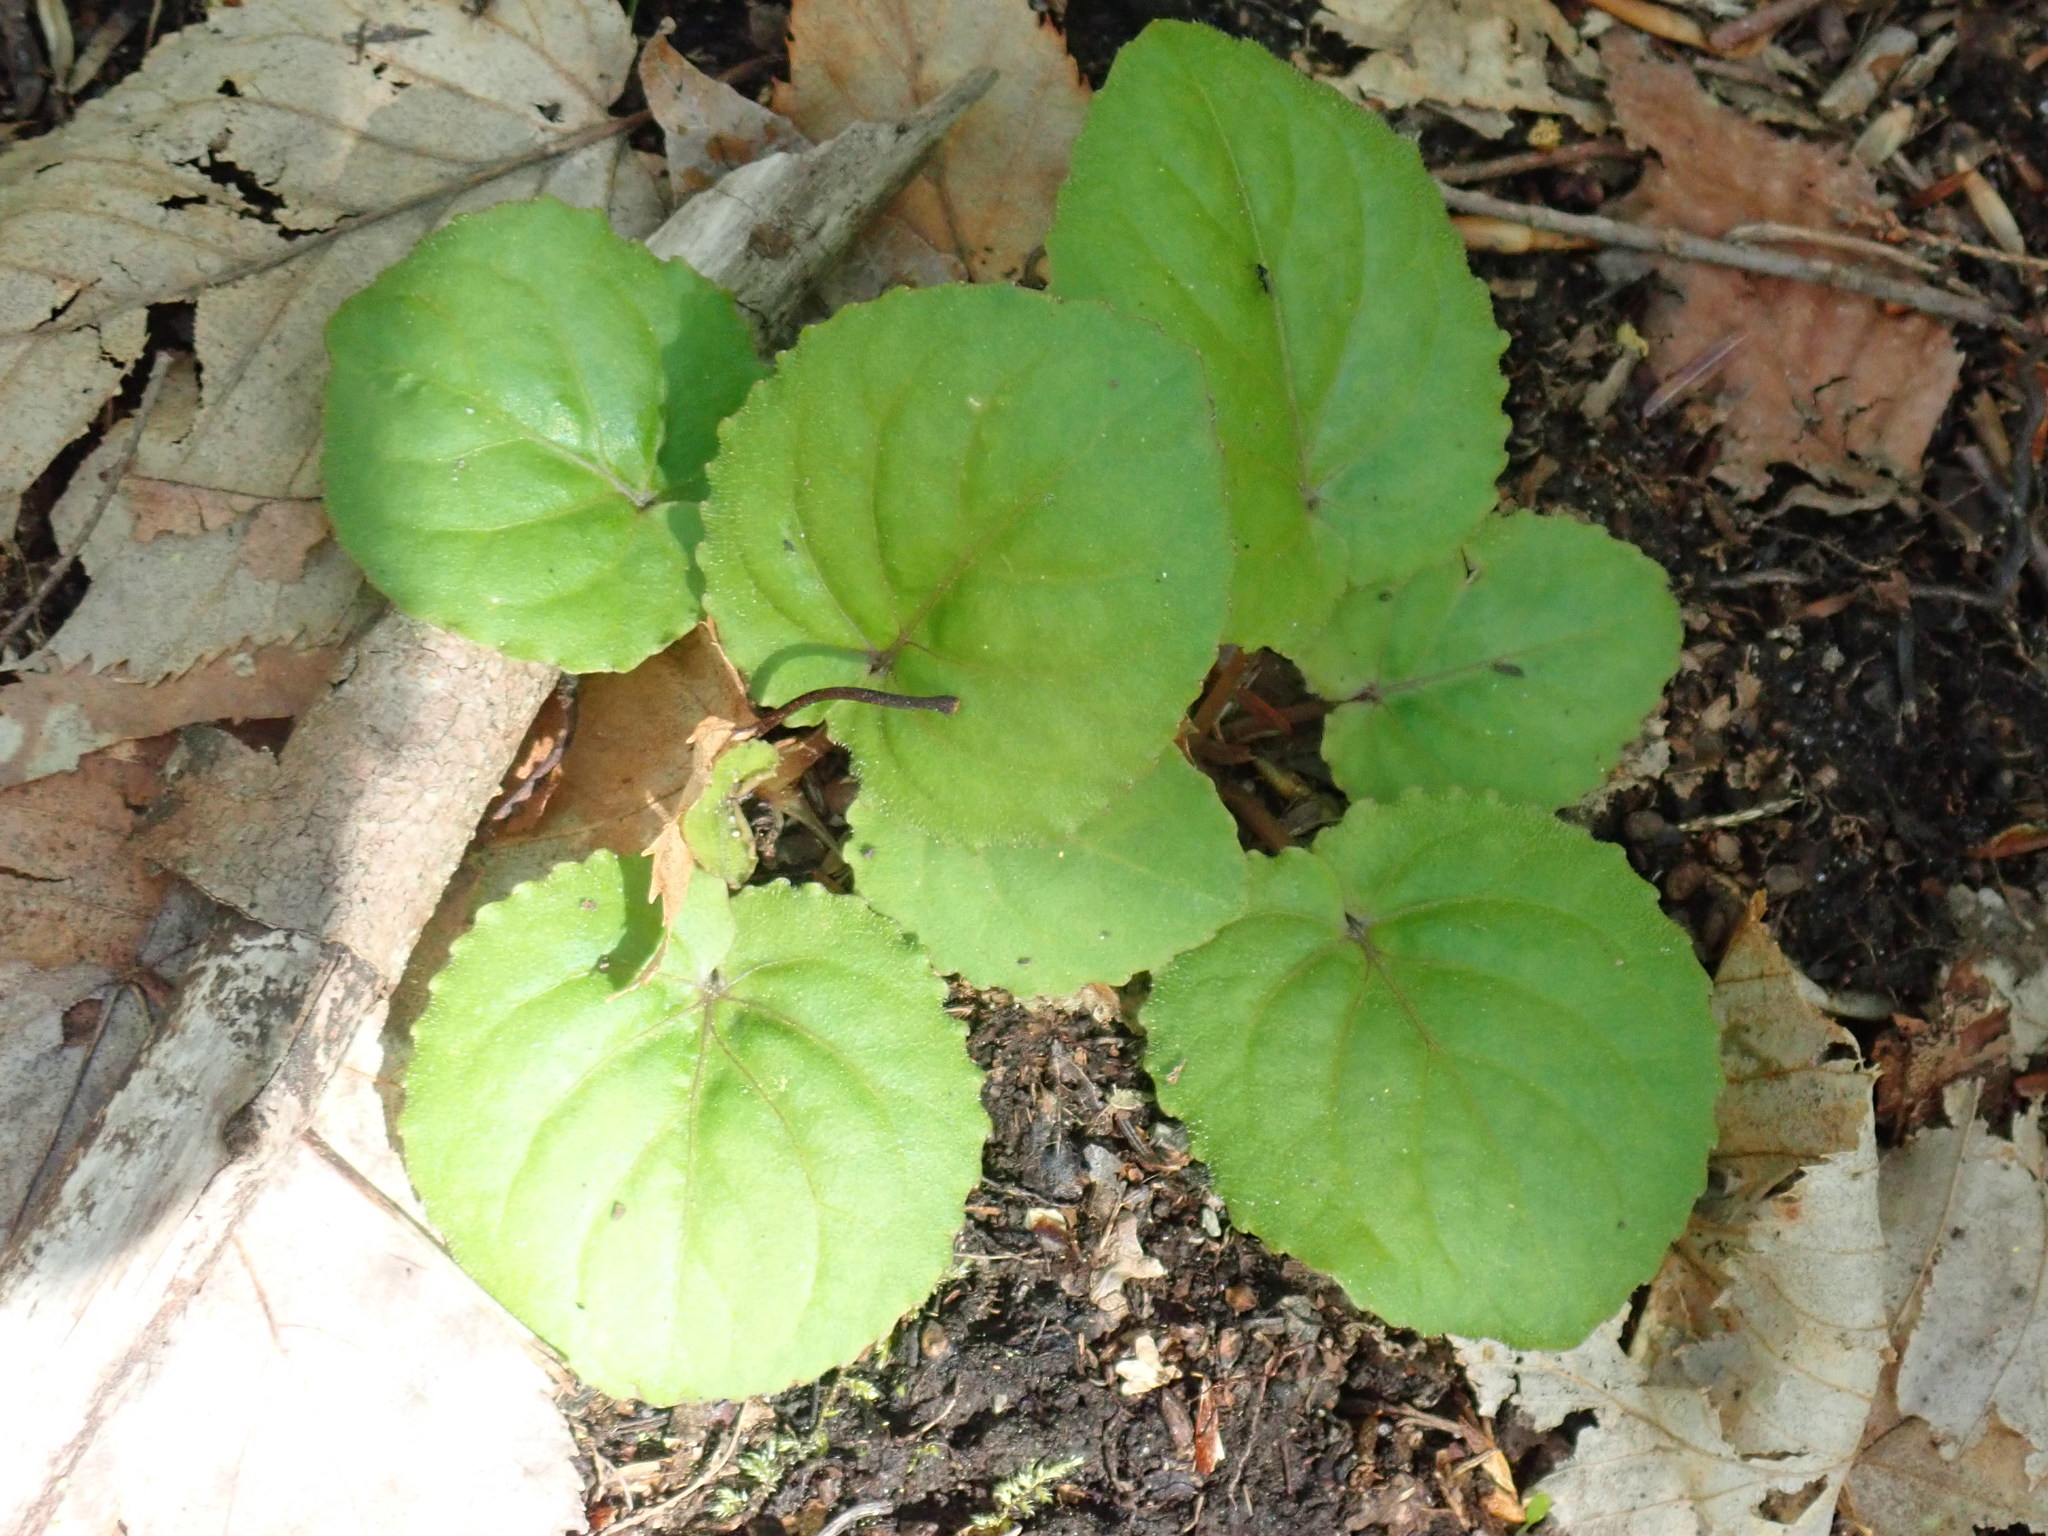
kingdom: Plantae
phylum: Tracheophyta
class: Magnoliopsida
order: Malpighiales
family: Violaceae
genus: Viola
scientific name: Viola rotundifolia
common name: Early yellow violet
